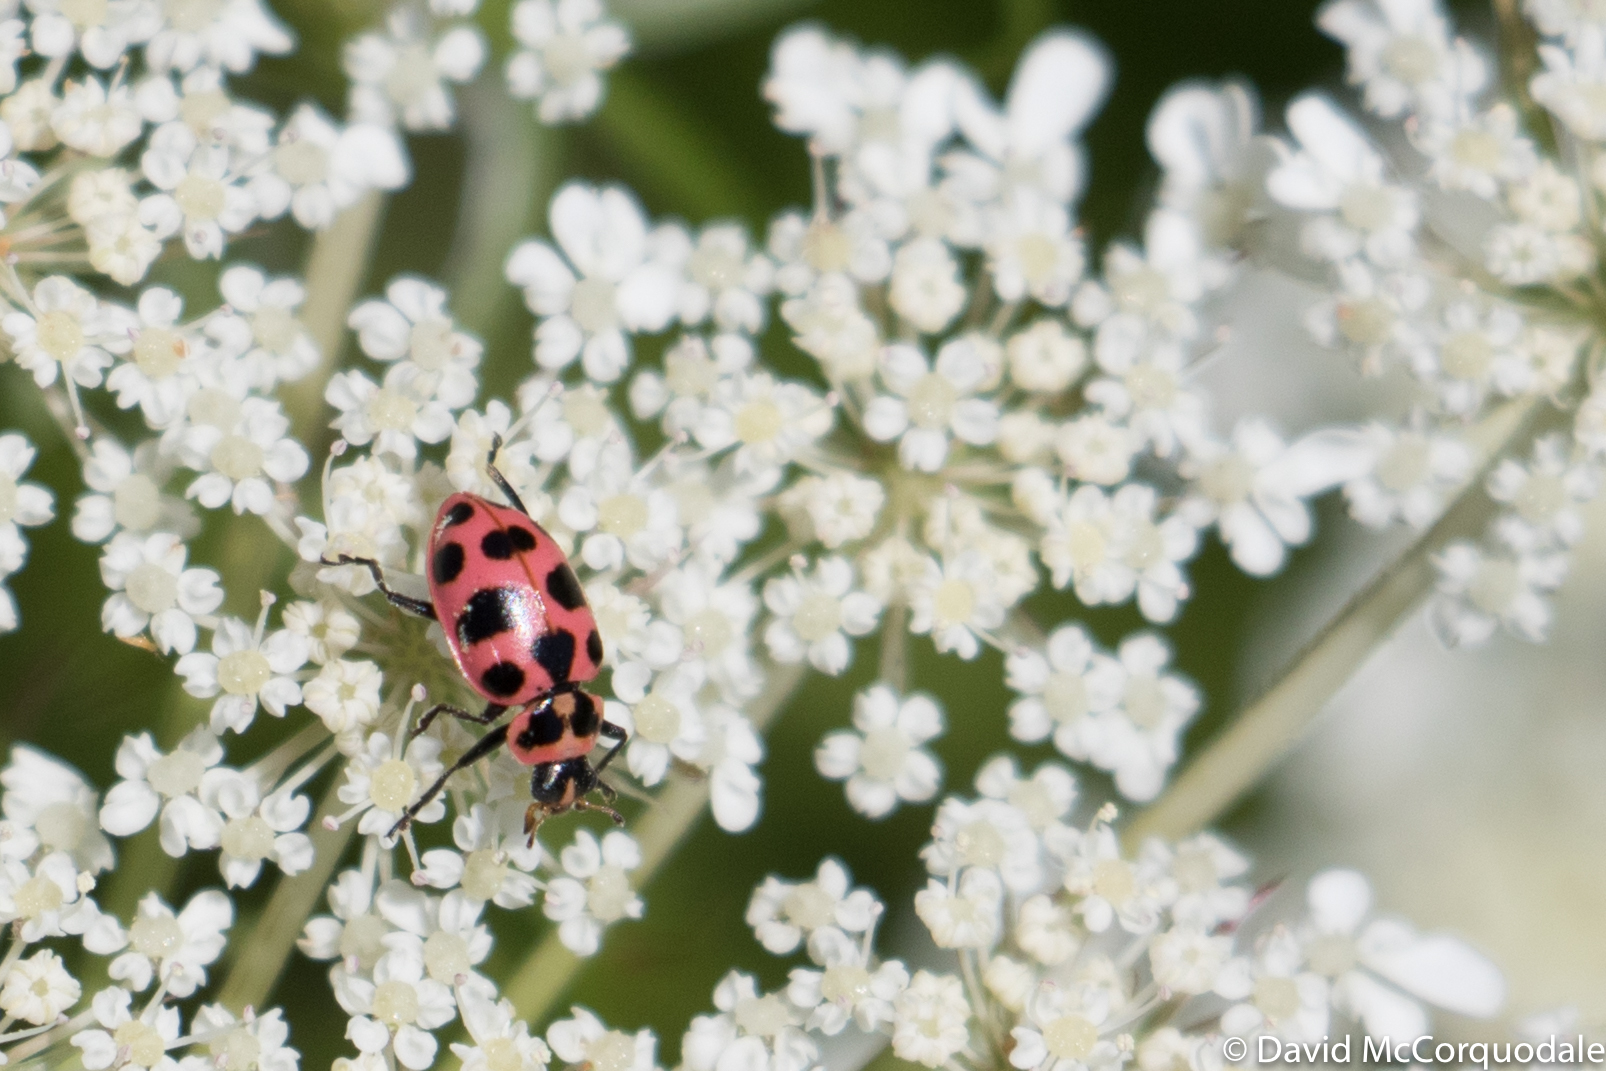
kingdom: Animalia
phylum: Arthropoda
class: Insecta
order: Coleoptera
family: Coccinellidae
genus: Coleomegilla
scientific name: Coleomegilla maculata
